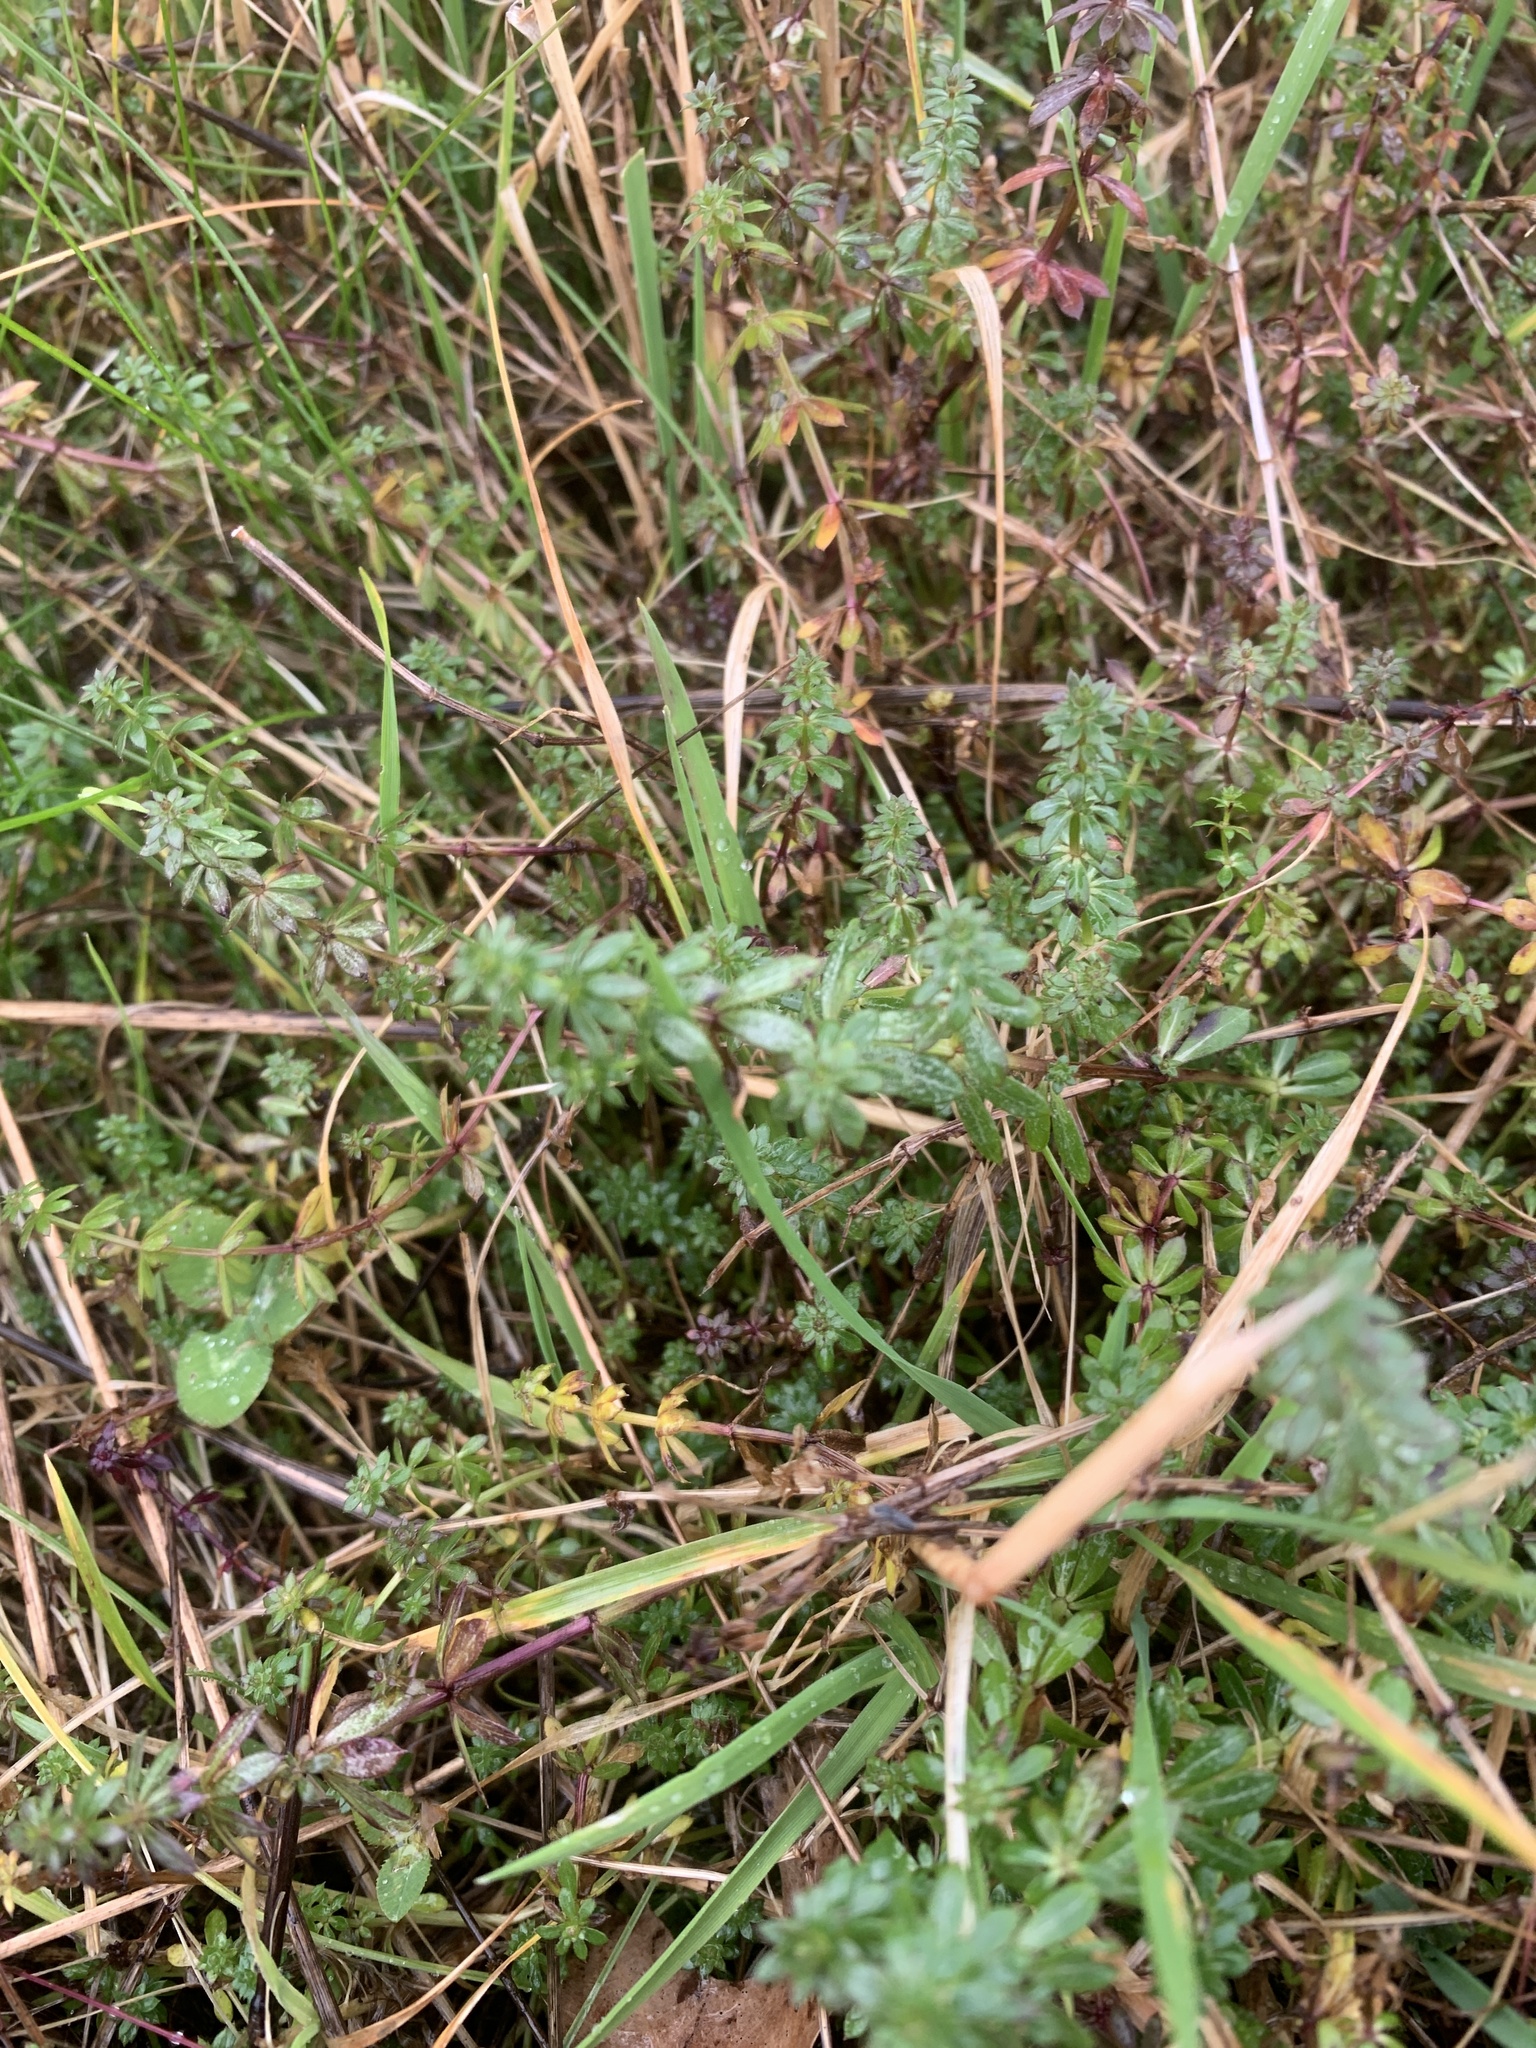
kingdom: Plantae
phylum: Tracheophyta
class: Magnoliopsida
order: Gentianales
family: Rubiaceae
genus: Galium
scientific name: Galium saxatile
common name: Heath bedstraw
